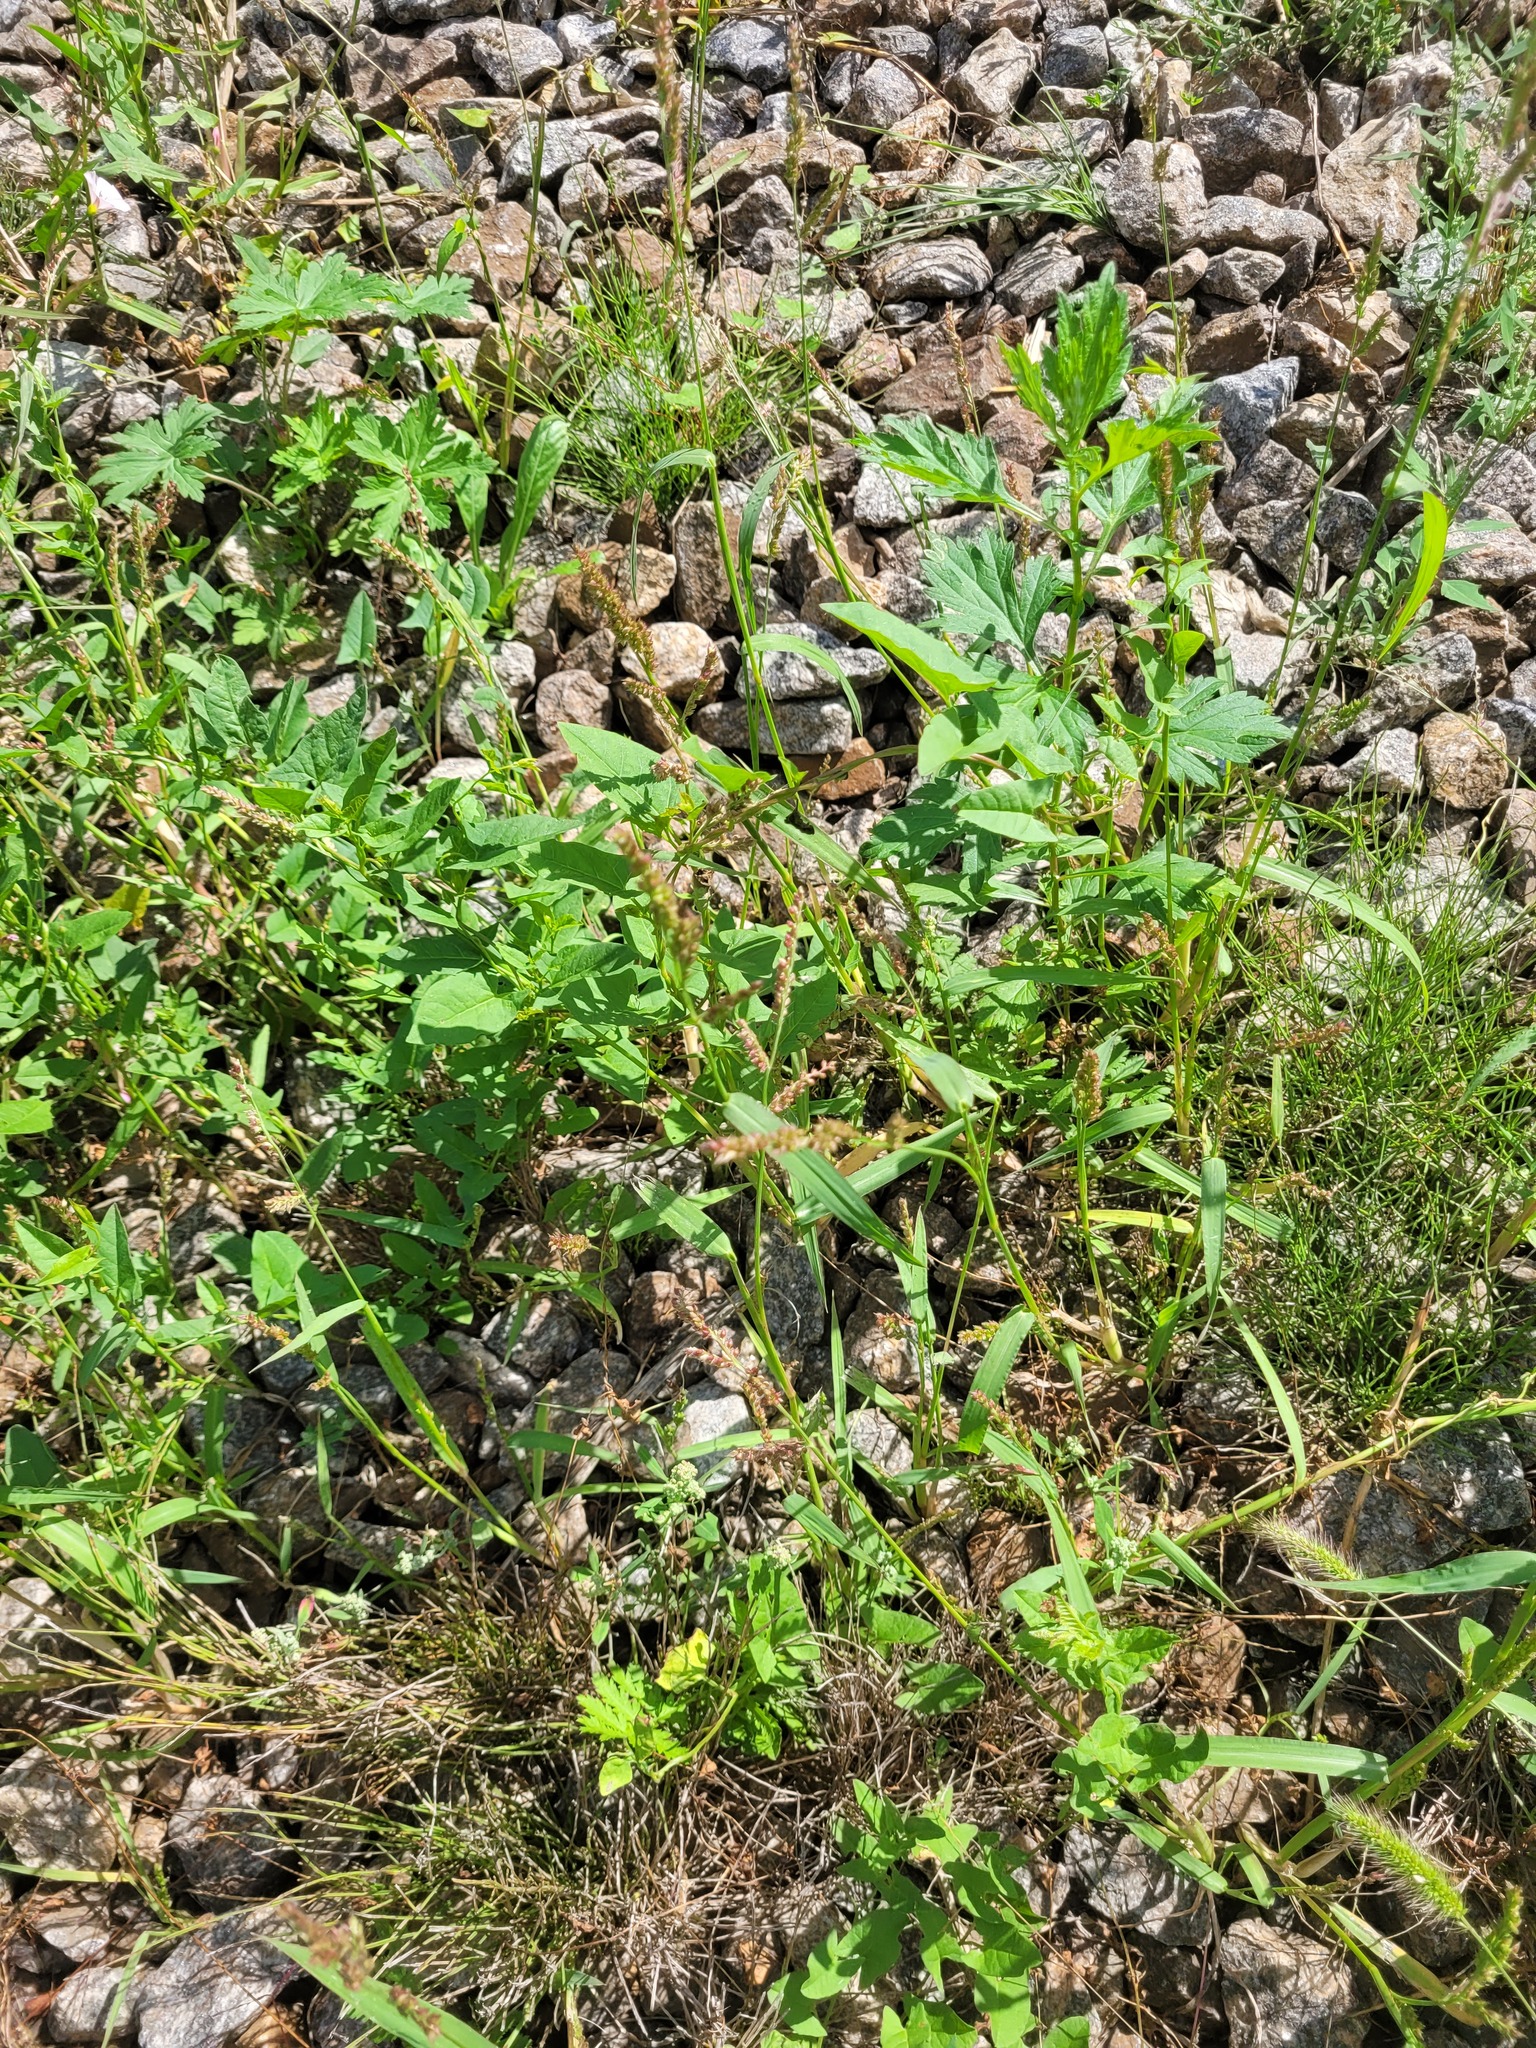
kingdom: Plantae
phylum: Tracheophyta
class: Liliopsida
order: Poales
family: Poaceae
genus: Echinochloa
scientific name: Echinochloa crus-galli
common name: Cockspur
